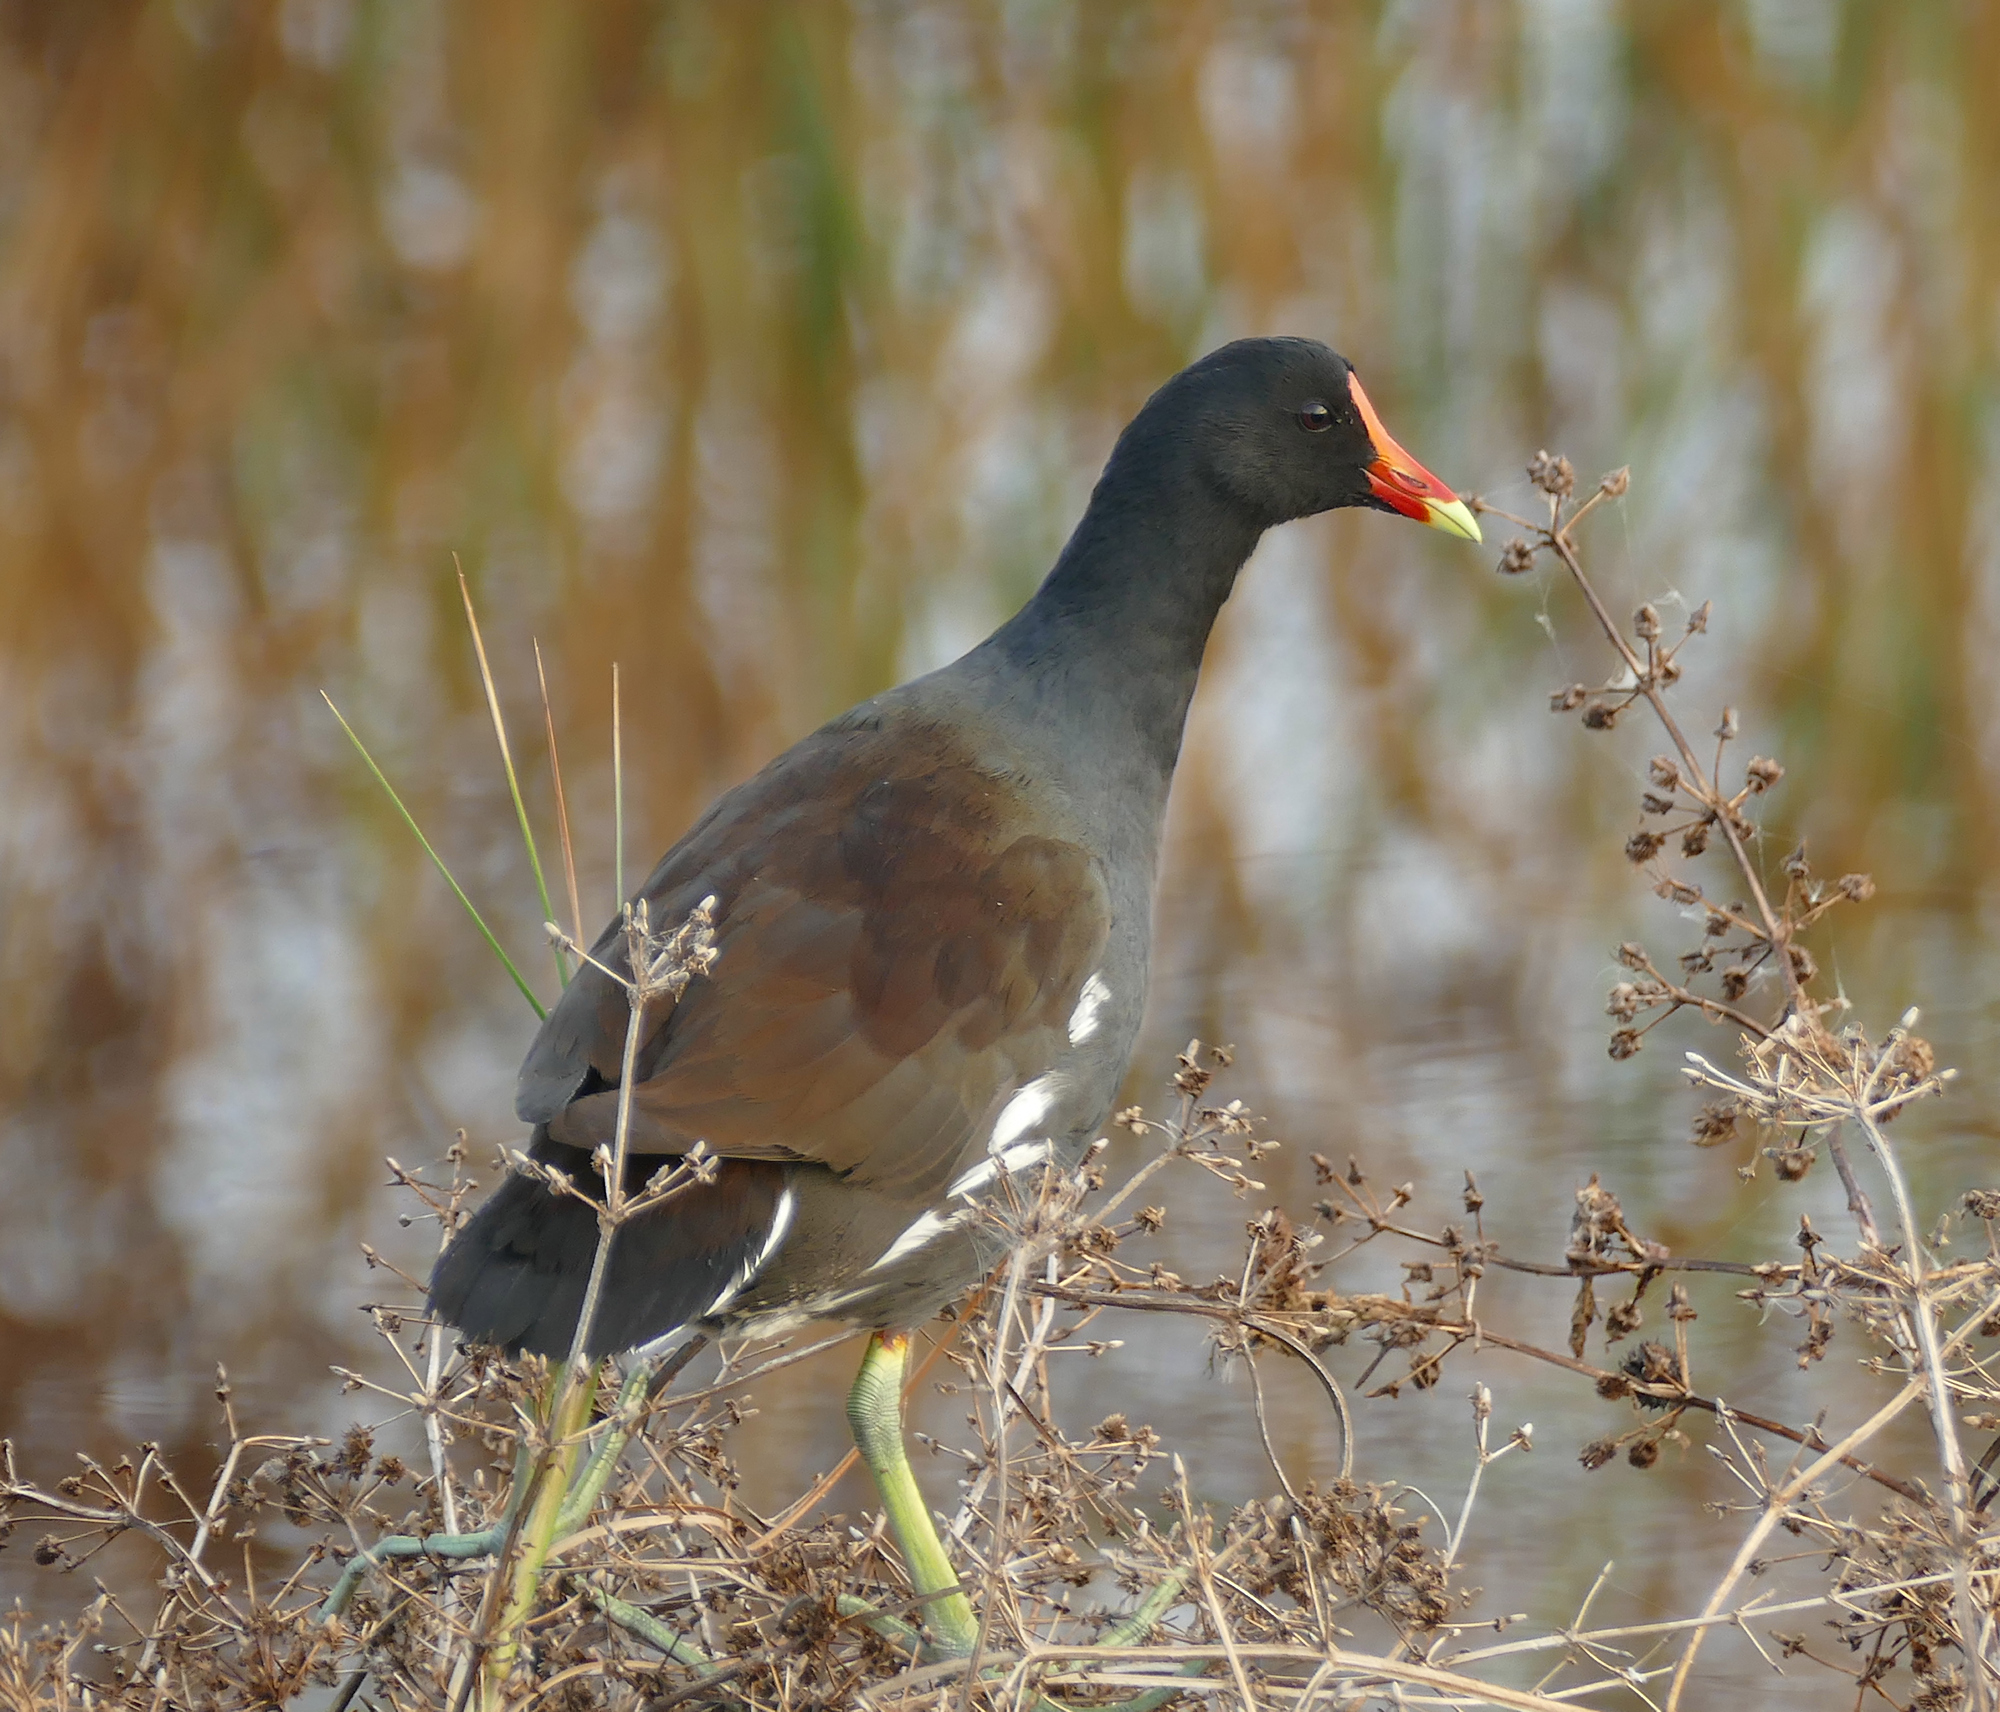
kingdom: Animalia
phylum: Chordata
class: Aves
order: Gruiformes
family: Rallidae
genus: Gallinula
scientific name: Gallinula chloropus
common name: Common moorhen
